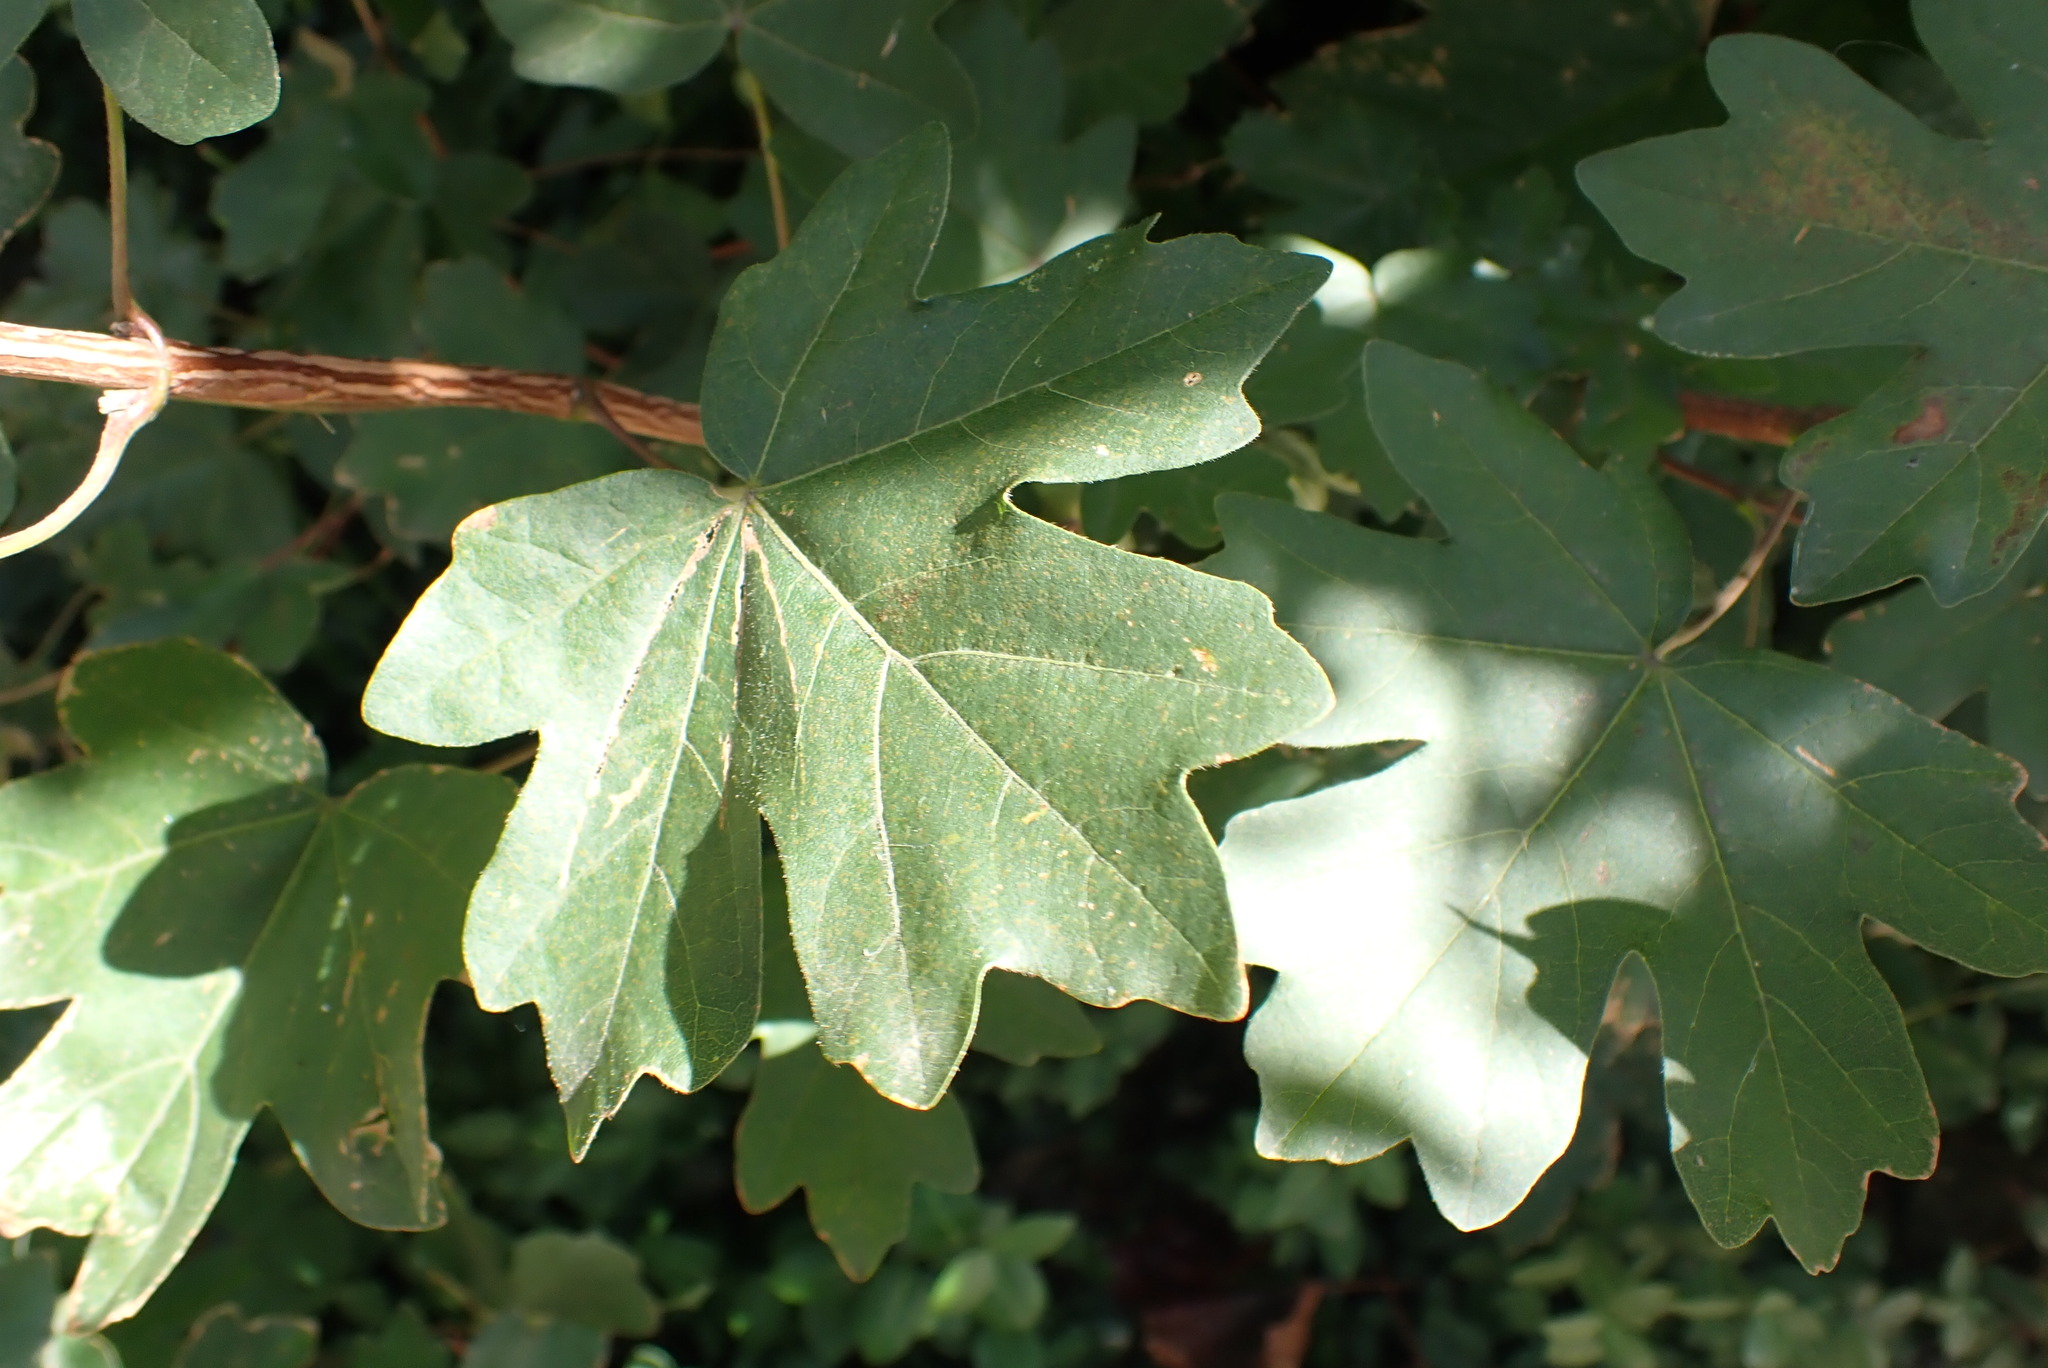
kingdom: Plantae
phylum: Tracheophyta
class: Magnoliopsida
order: Sapindales
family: Sapindaceae
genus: Acer
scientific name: Acer campestre
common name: Field maple
